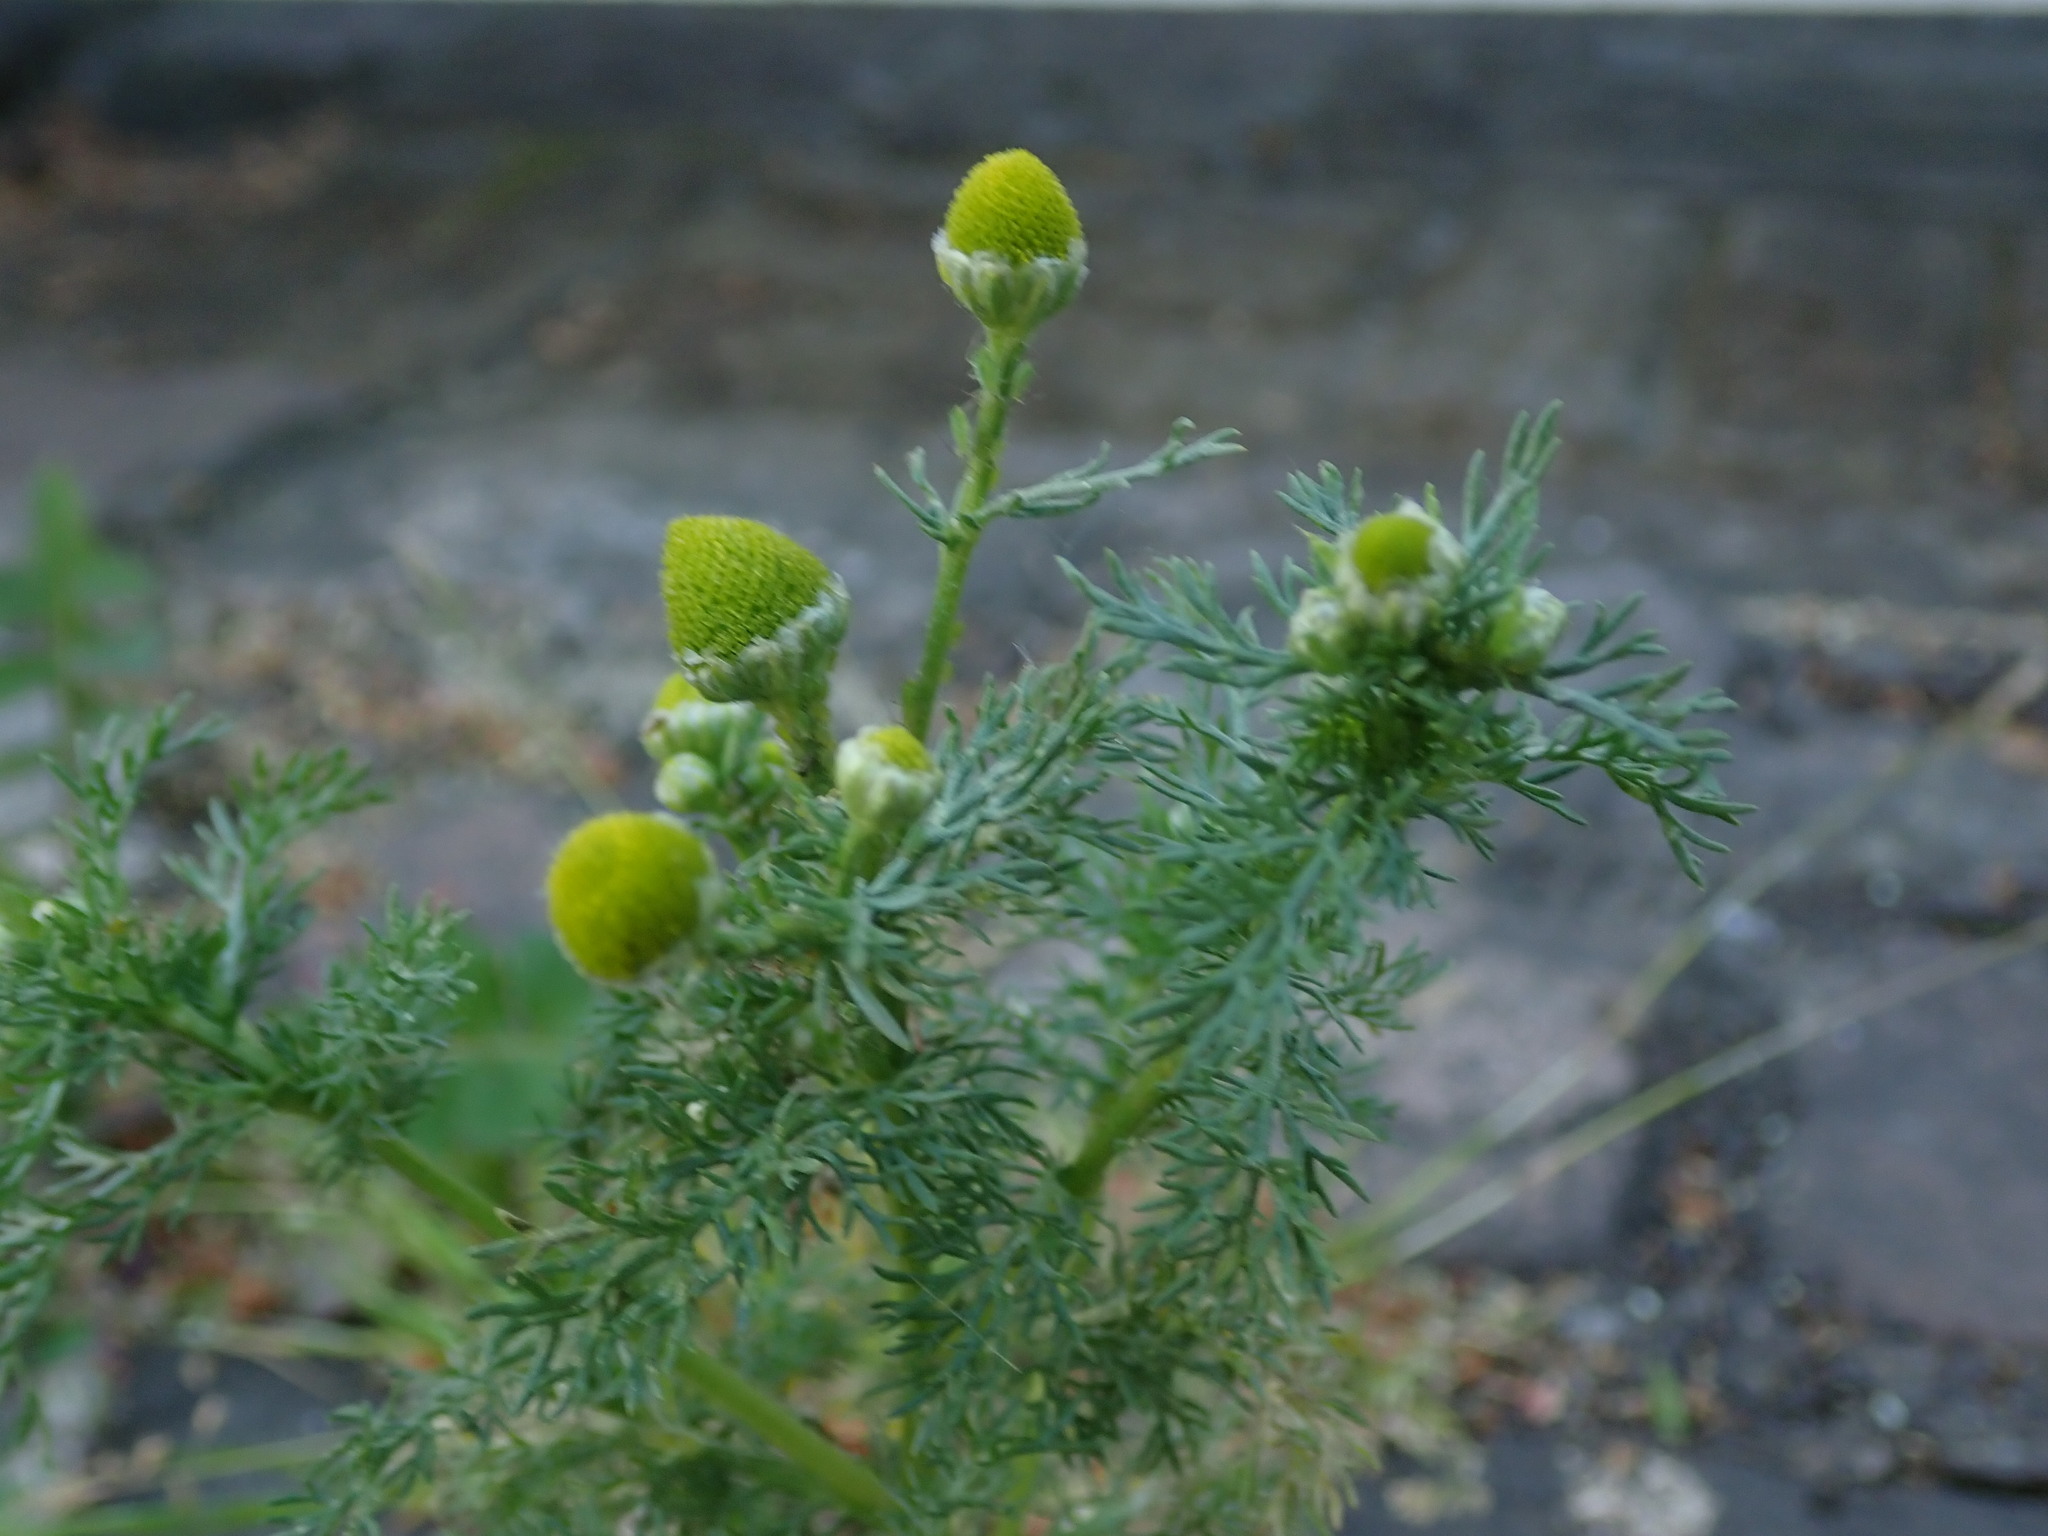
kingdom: Plantae
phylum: Tracheophyta
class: Magnoliopsida
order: Asterales
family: Asteraceae
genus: Matricaria
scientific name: Matricaria discoidea
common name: Disc mayweed
